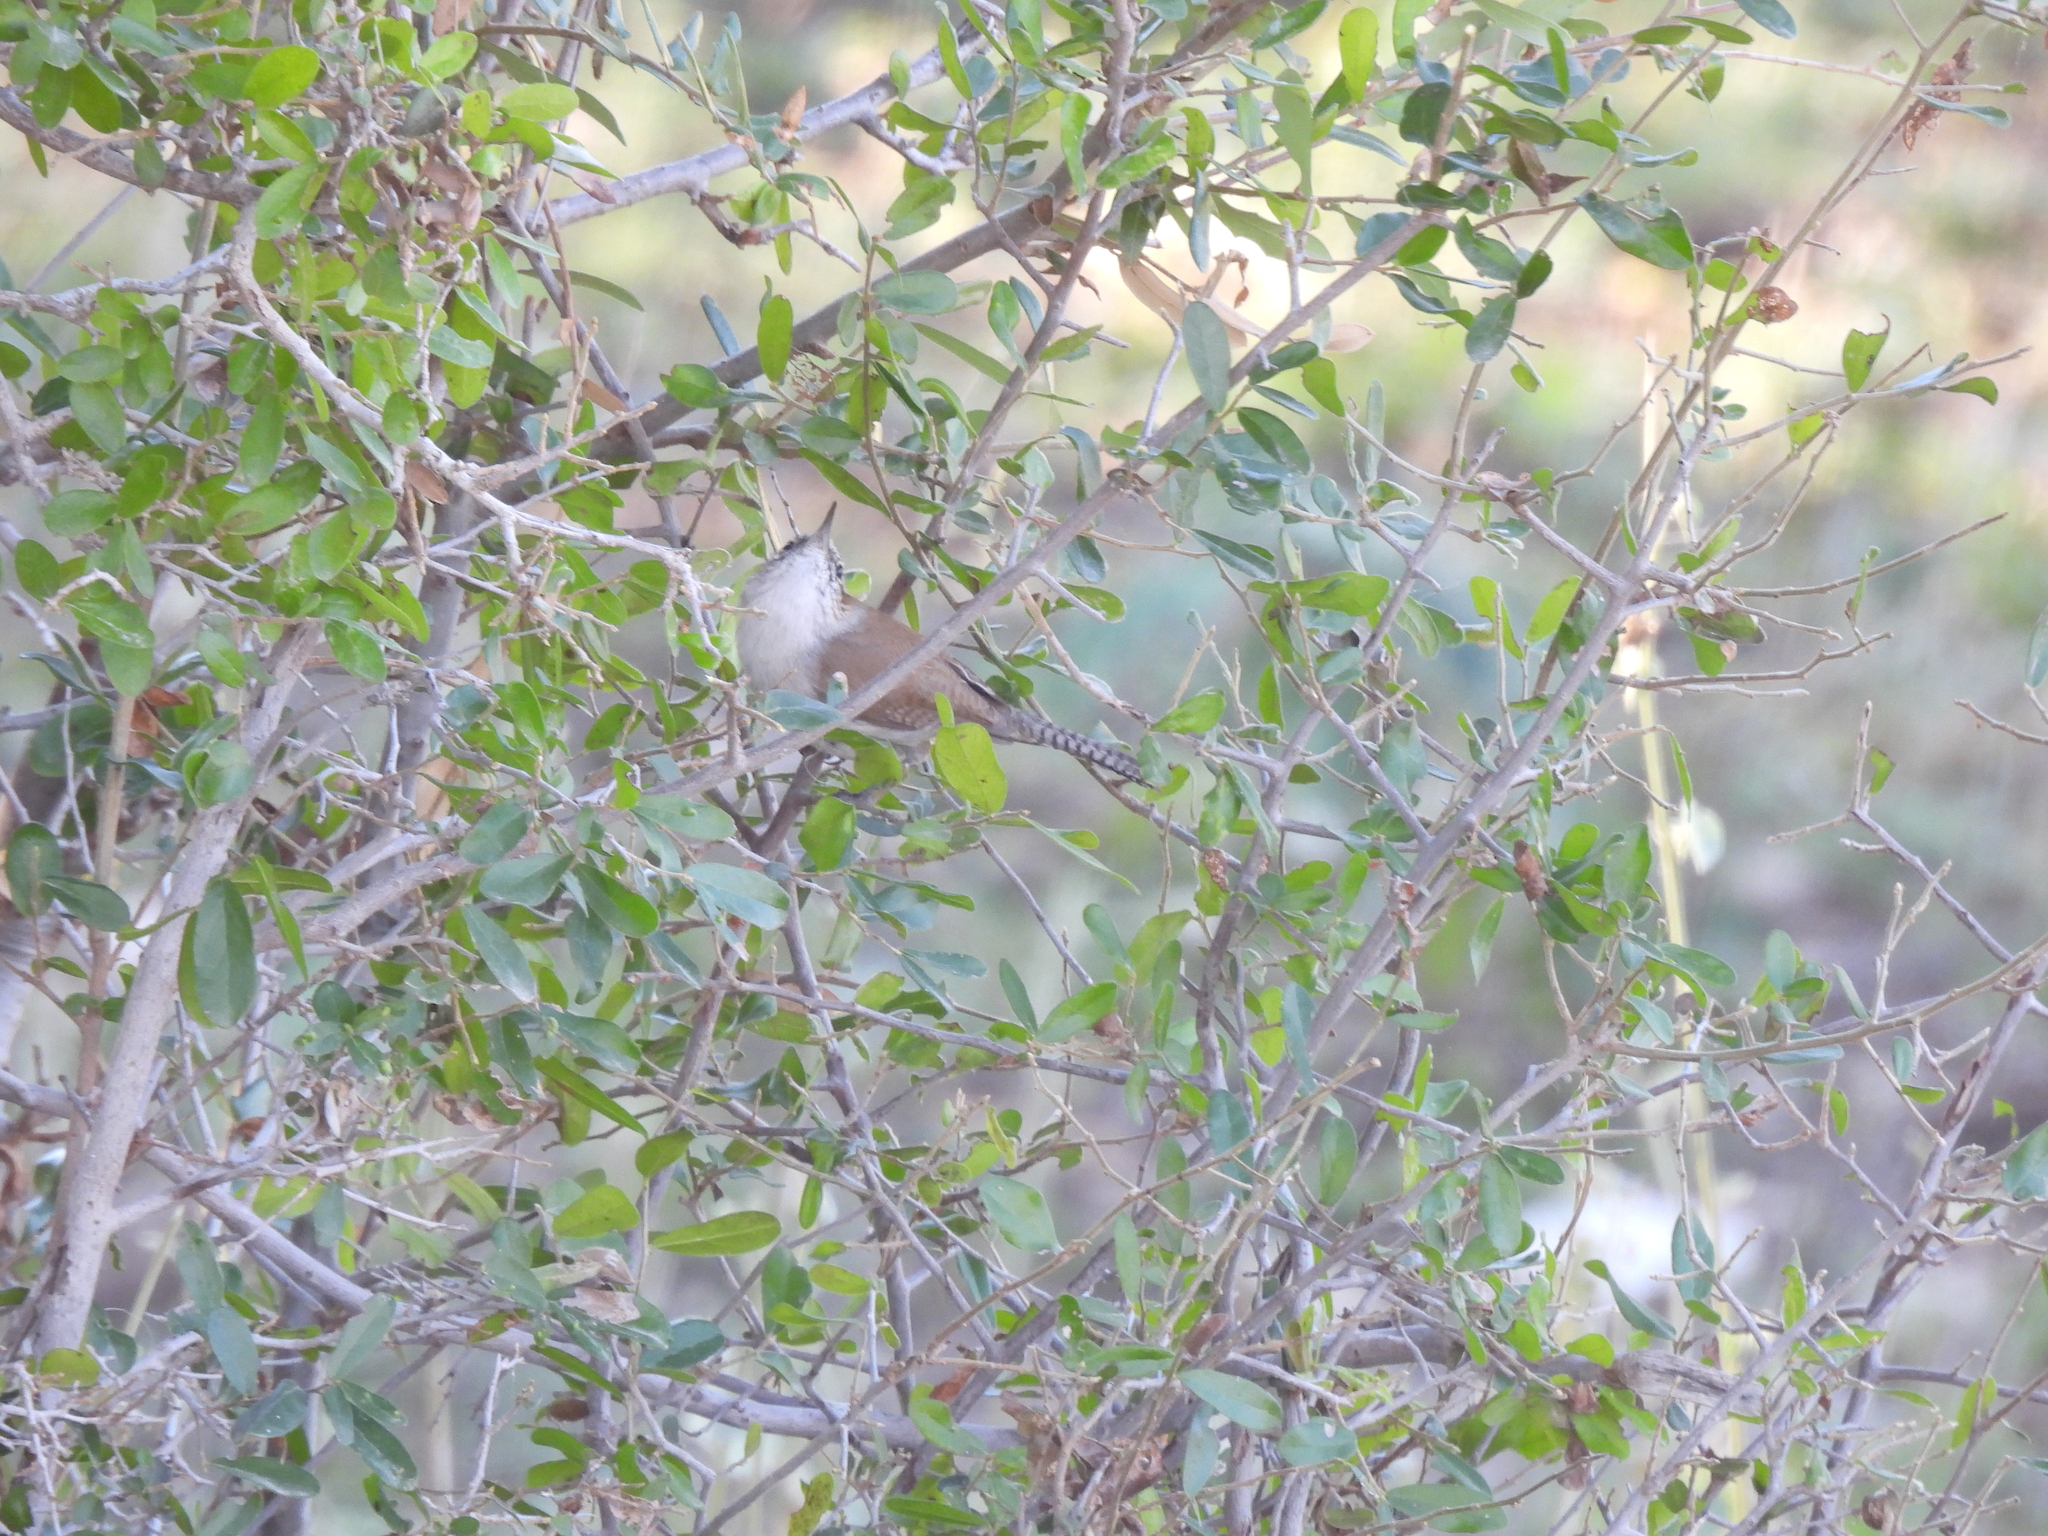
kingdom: Animalia
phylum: Chordata
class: Aves
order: Passeriformes
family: Troglodytidae
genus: Thryomanes
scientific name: Thryomanes bewickii
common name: Bewick's wren
